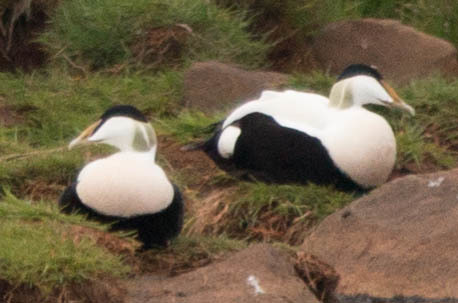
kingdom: Animalia
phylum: Chordata
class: Aves
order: Anseriformes
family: Anatidae
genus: Somateria
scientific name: Somateria mollissima
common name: Common eider
